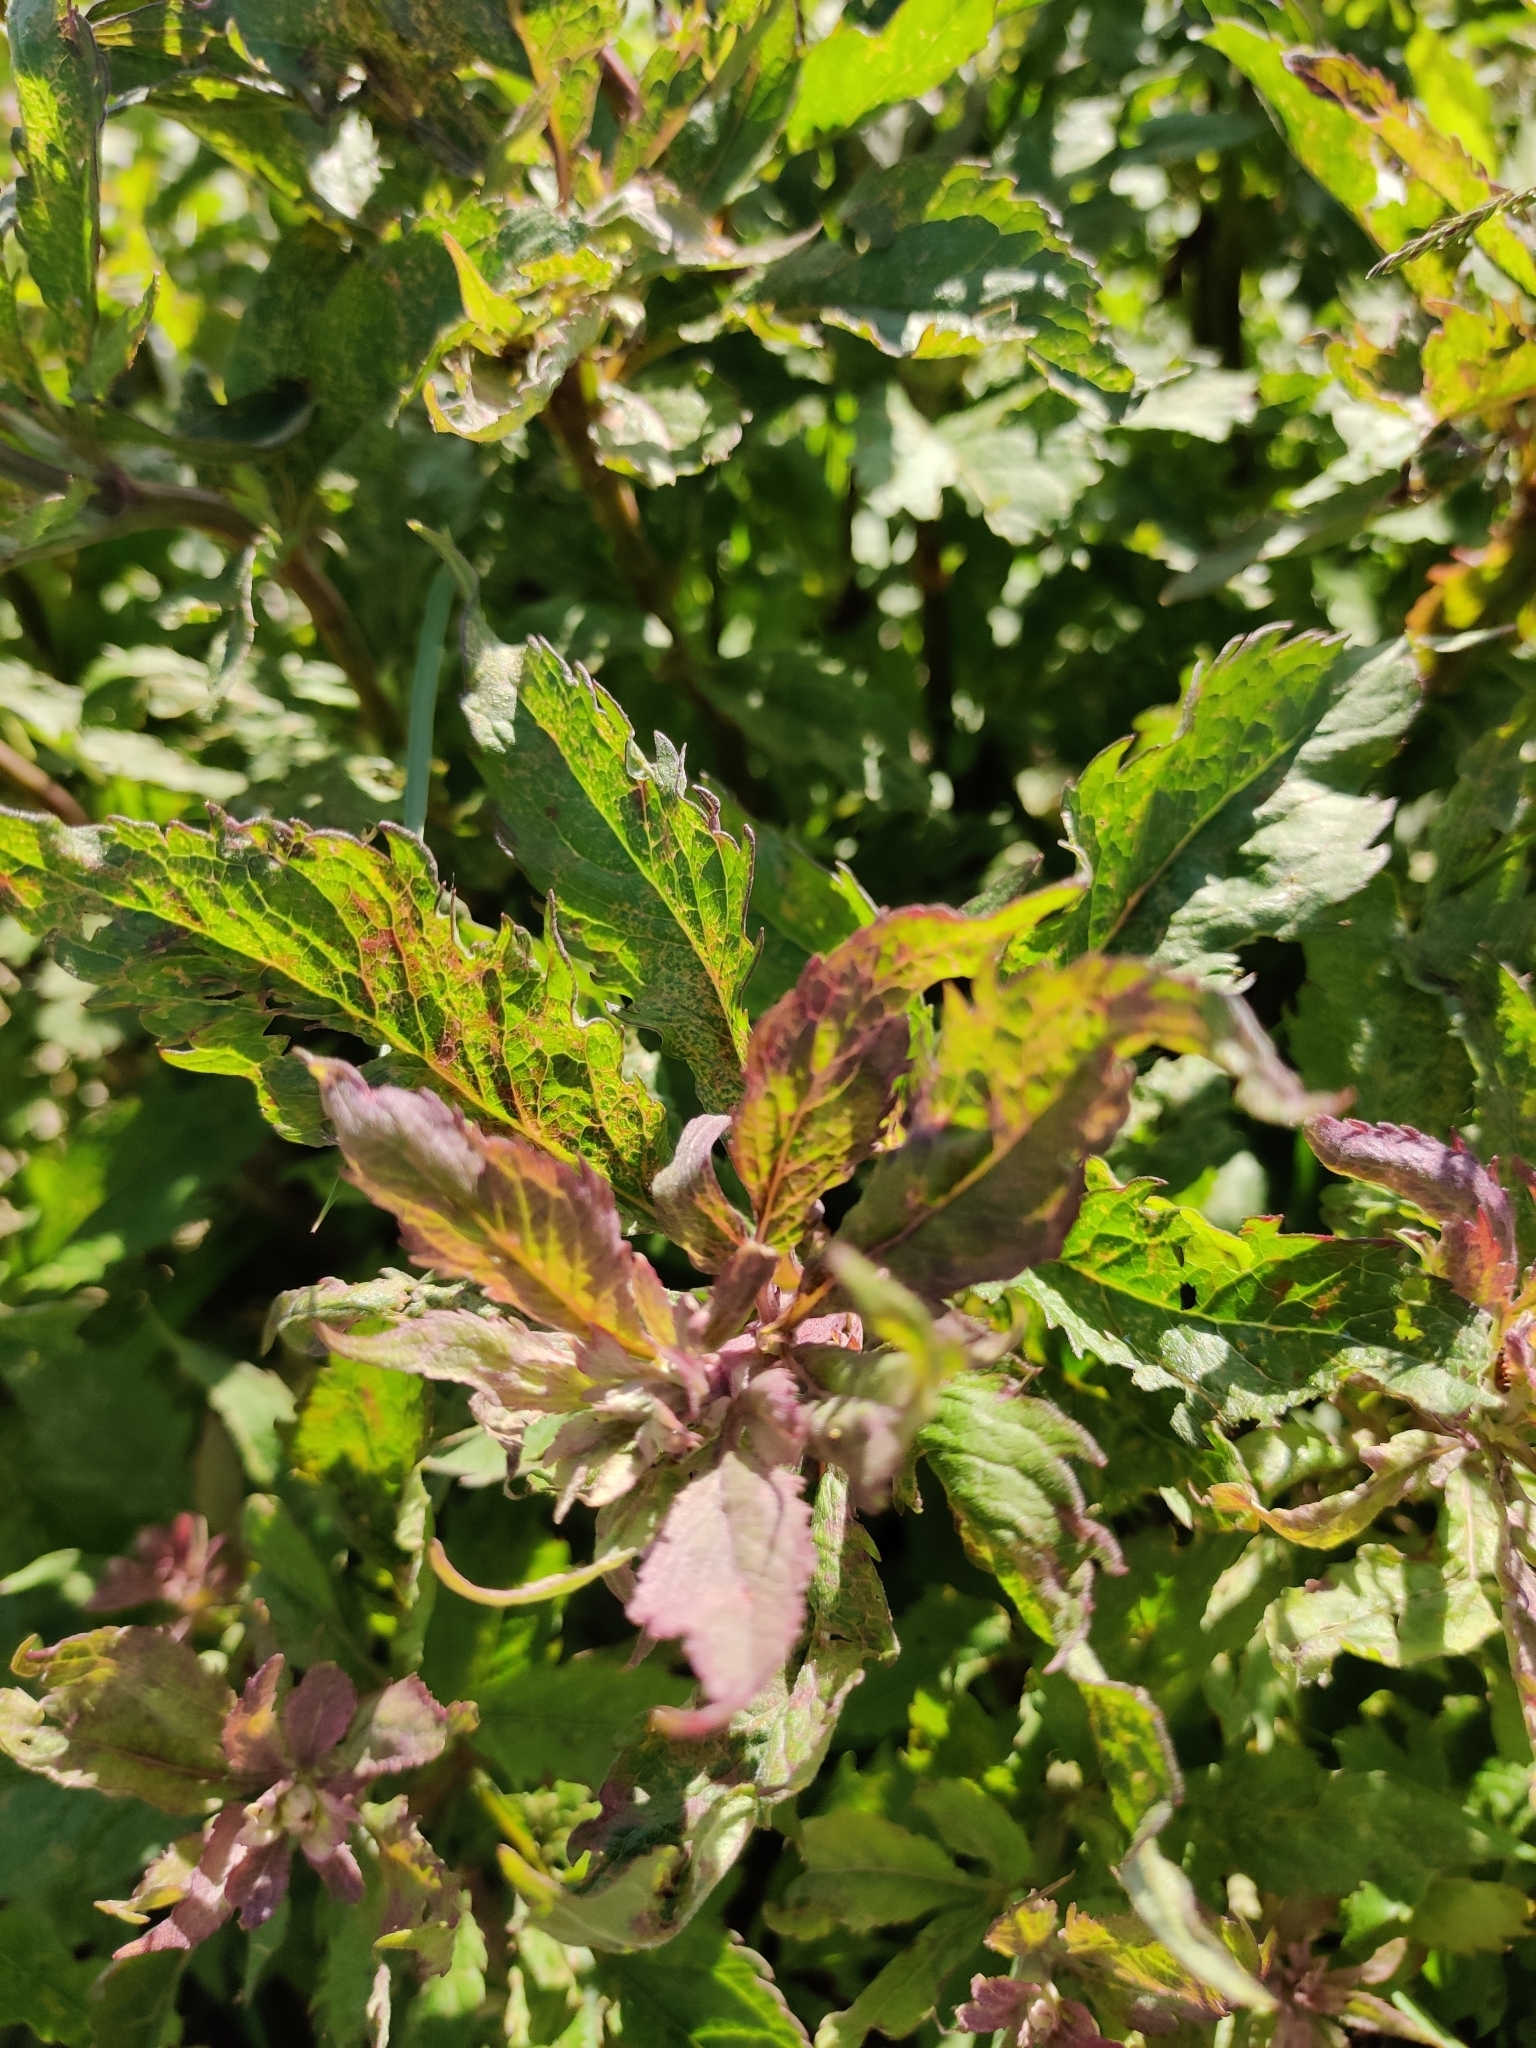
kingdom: Plantae
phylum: Tracheophyta
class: Magnoliopsida
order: Asterales
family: Asteraceae
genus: Eupatorium
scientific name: Eupatorium cannabinum
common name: Hemp-agrimony
